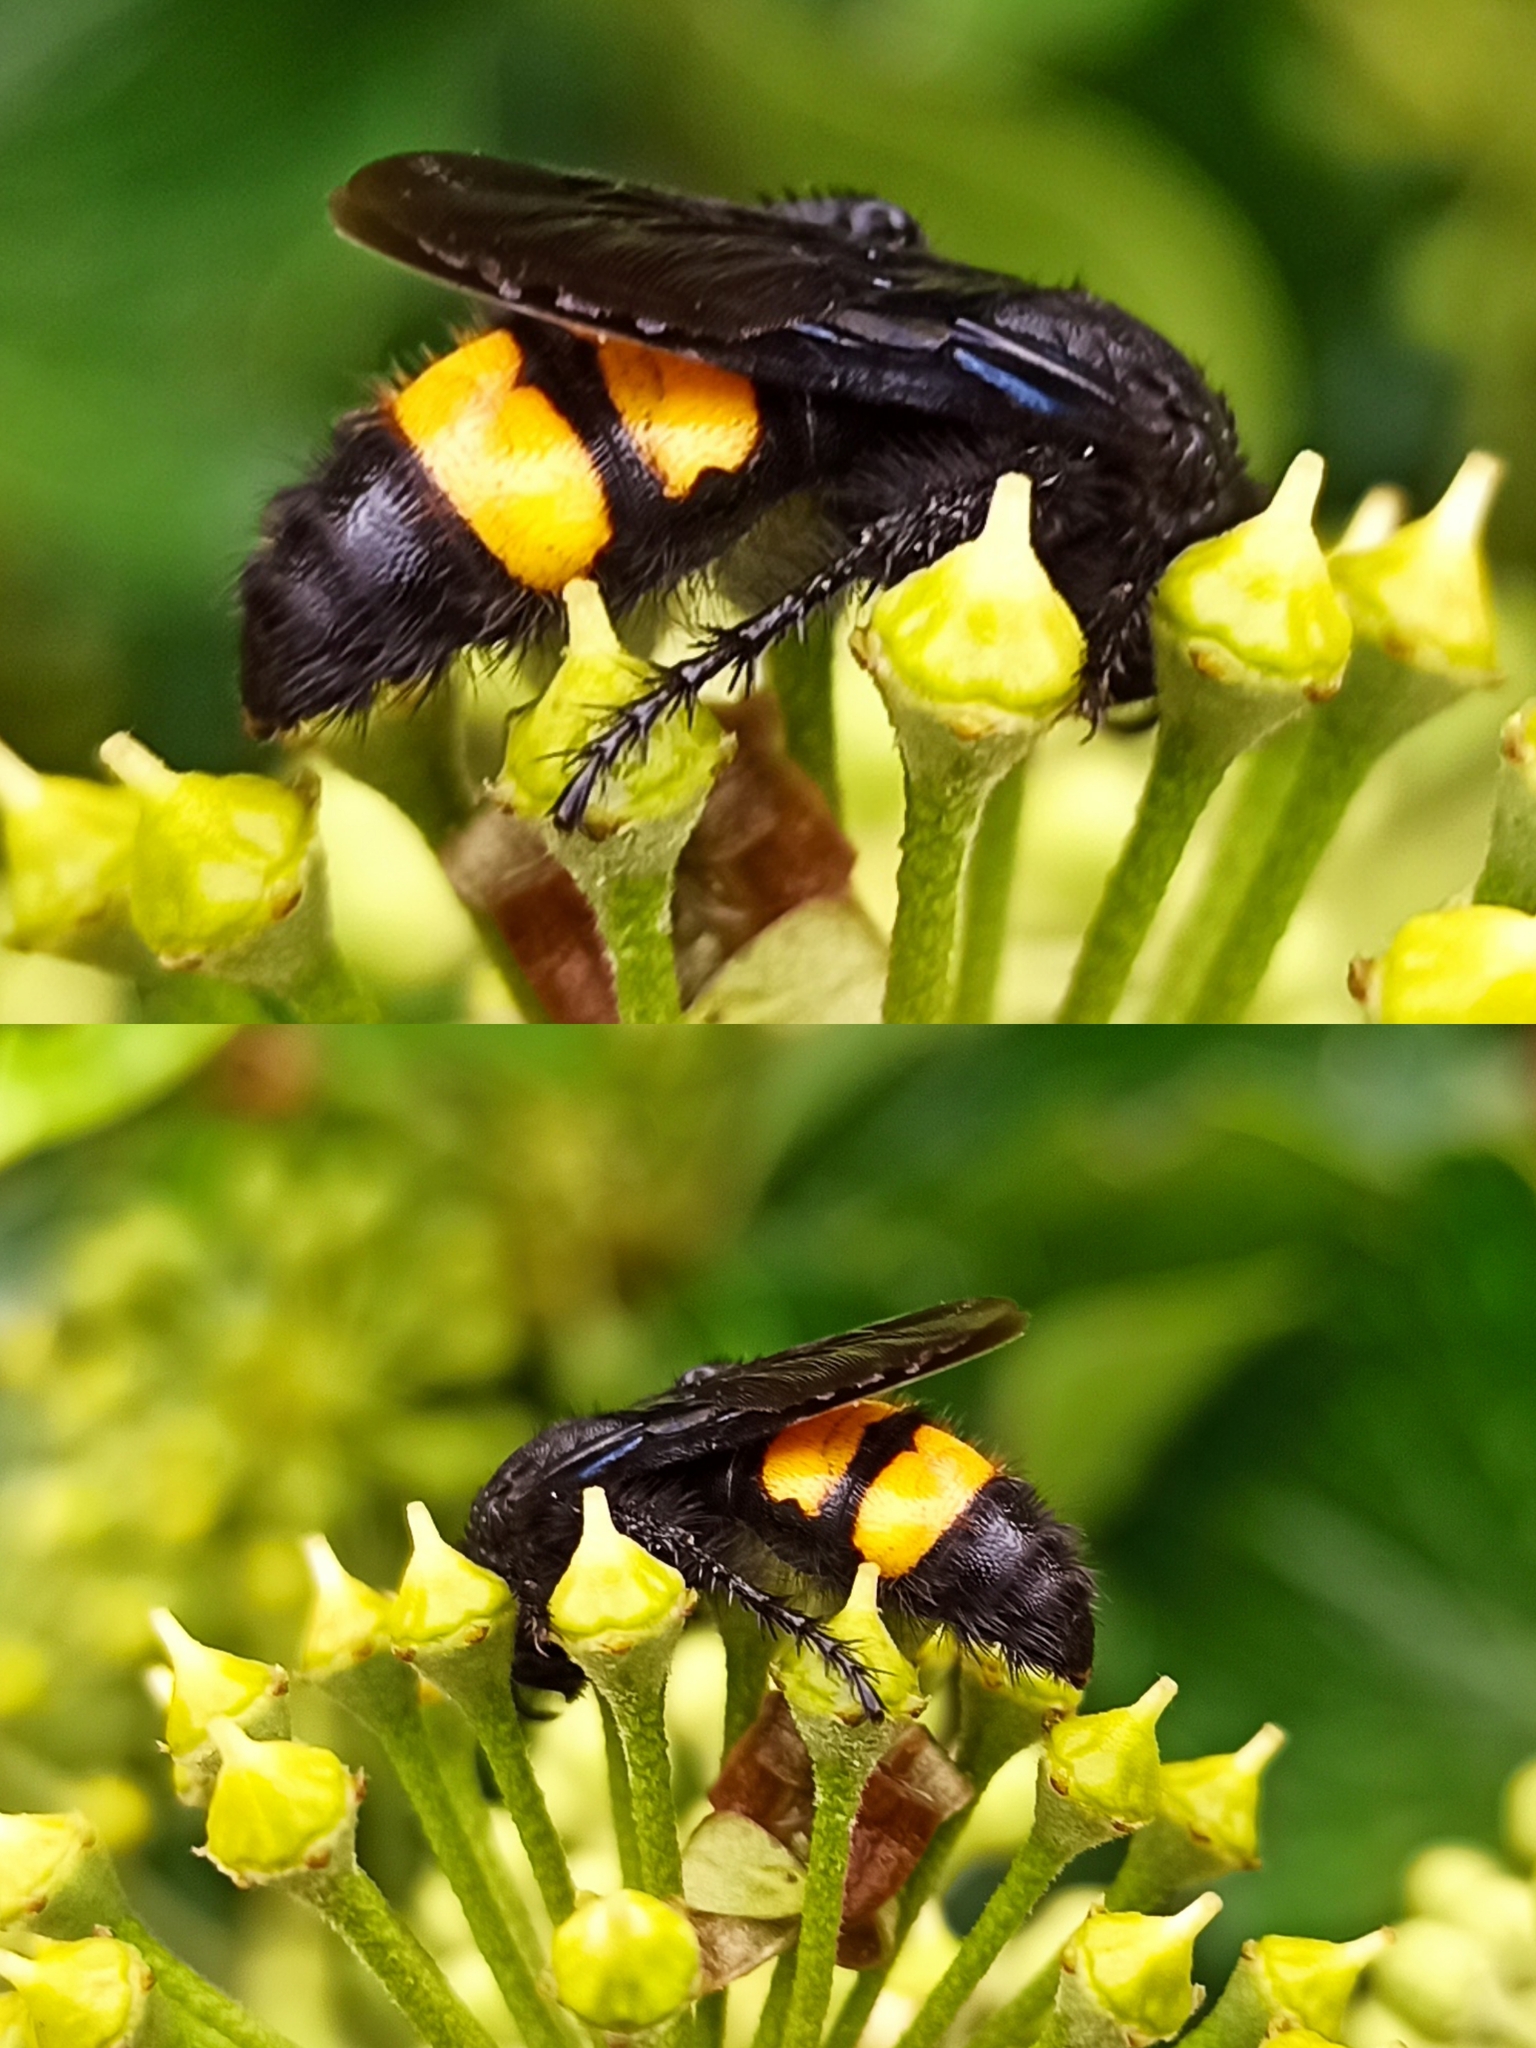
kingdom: Animalia
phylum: Arthropoda
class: Insecta
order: Hymenoptera
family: Scoliidae
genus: Scolia
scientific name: Scolia hirta
